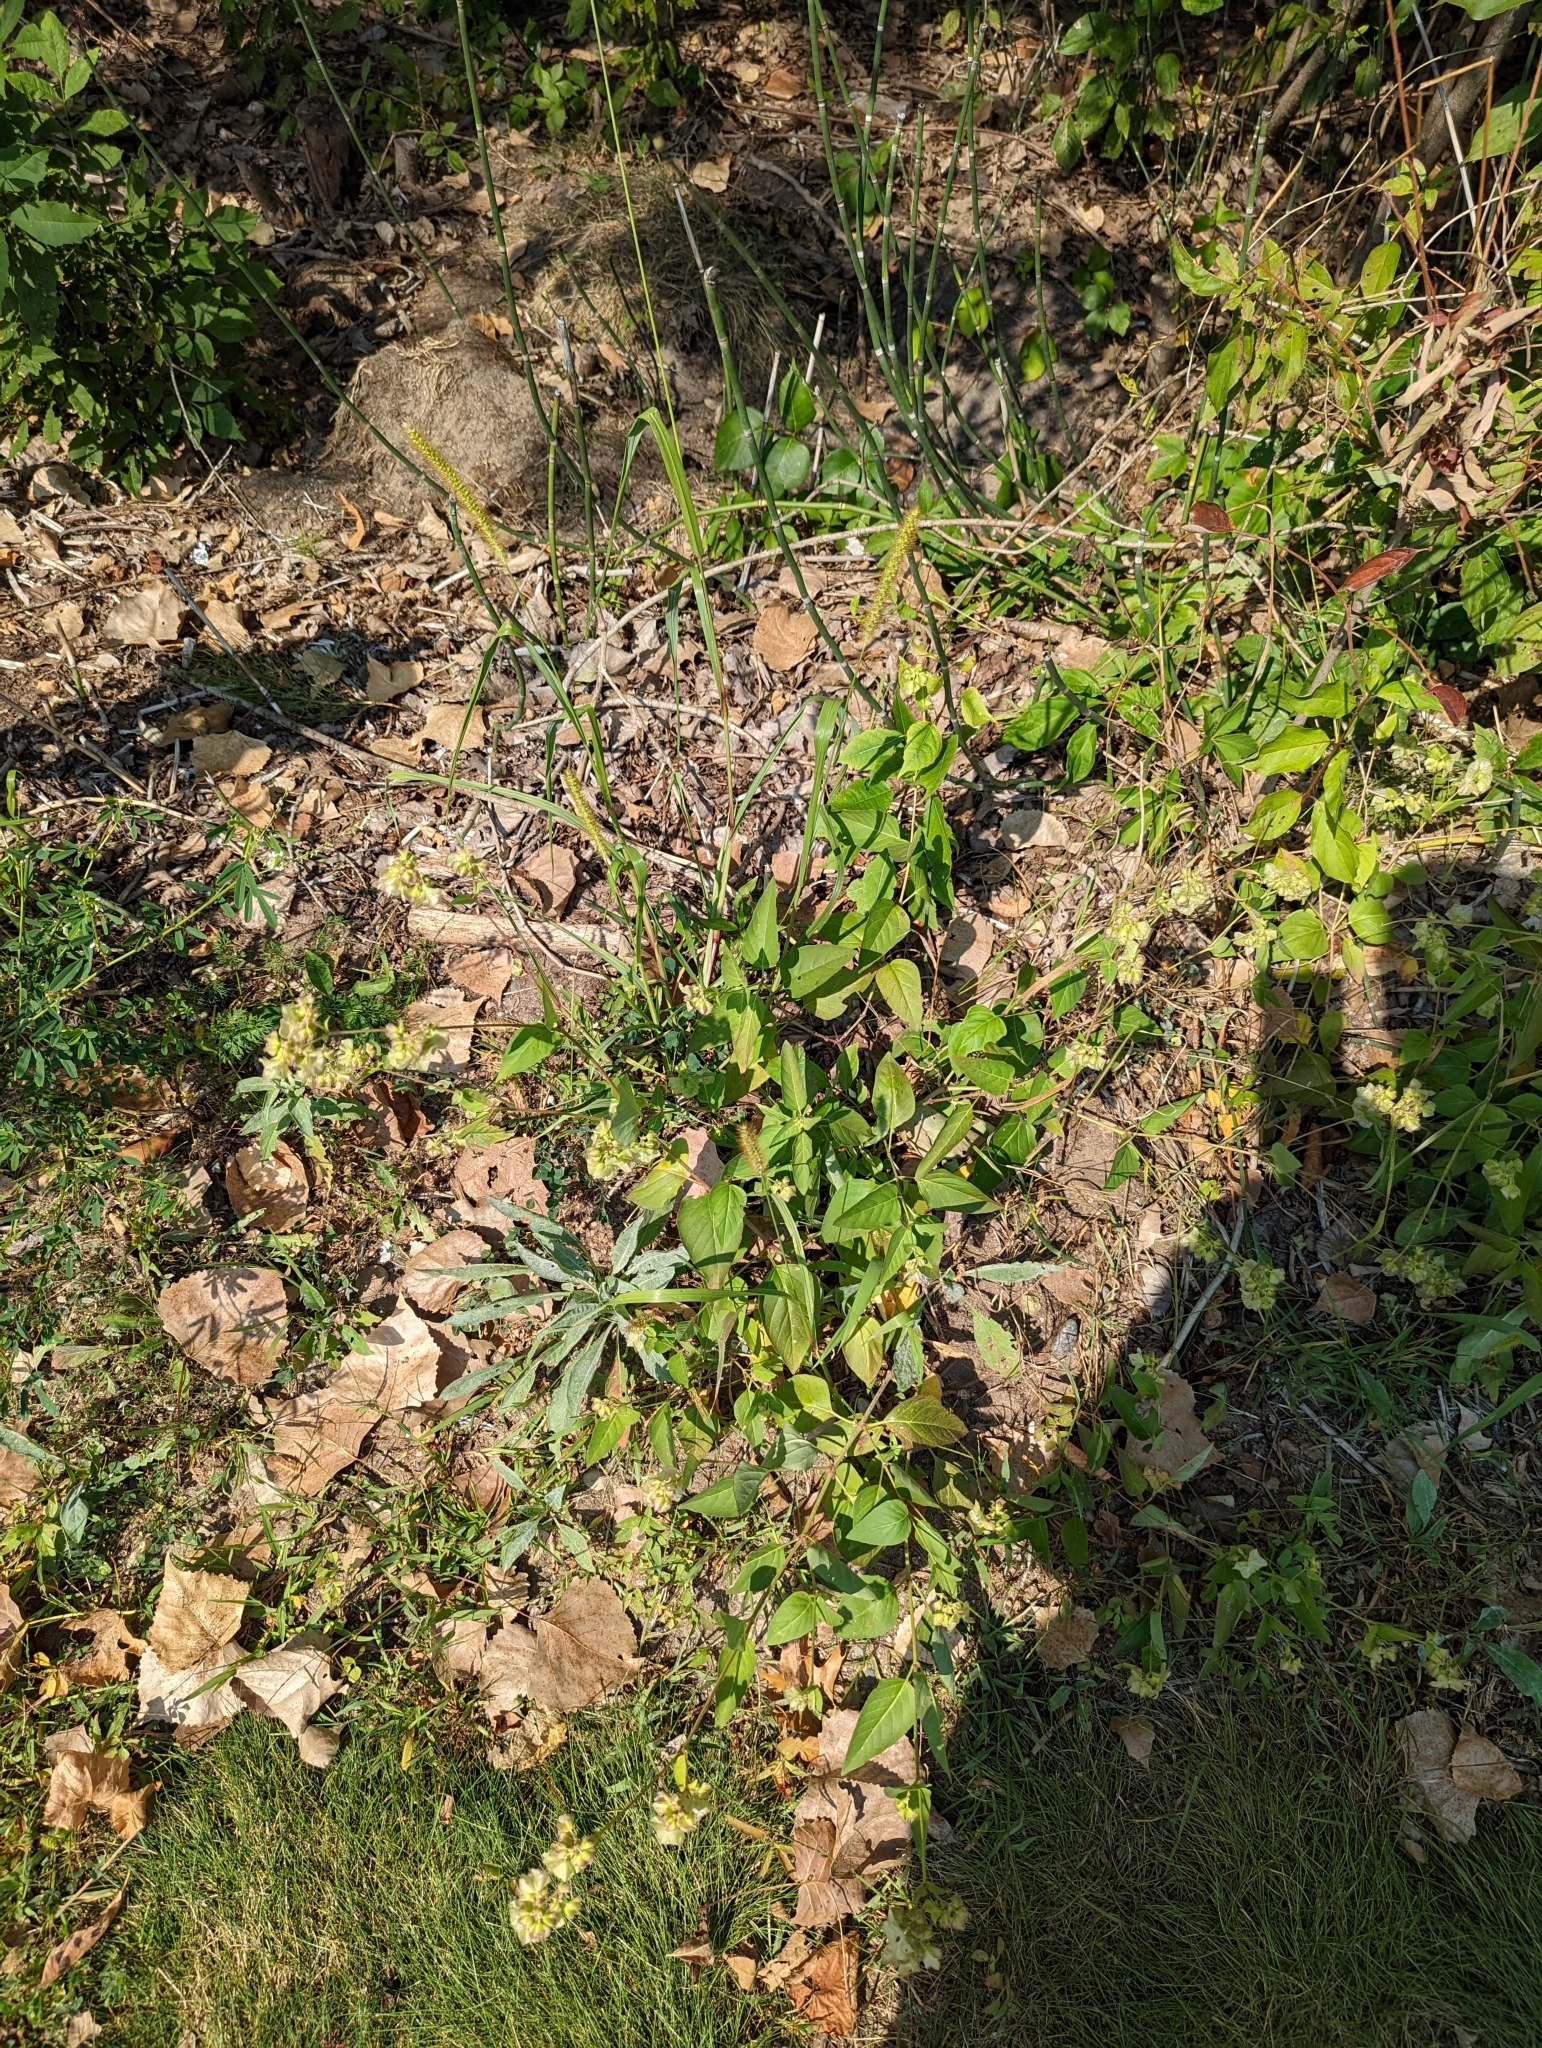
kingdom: Plantae
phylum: Tracheophyta
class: Magnoliopsida
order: Caryophyllales
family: Nyctaginaceae
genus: Mirabilis
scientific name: Mirabilis nyctaginea
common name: Umbrella wort
